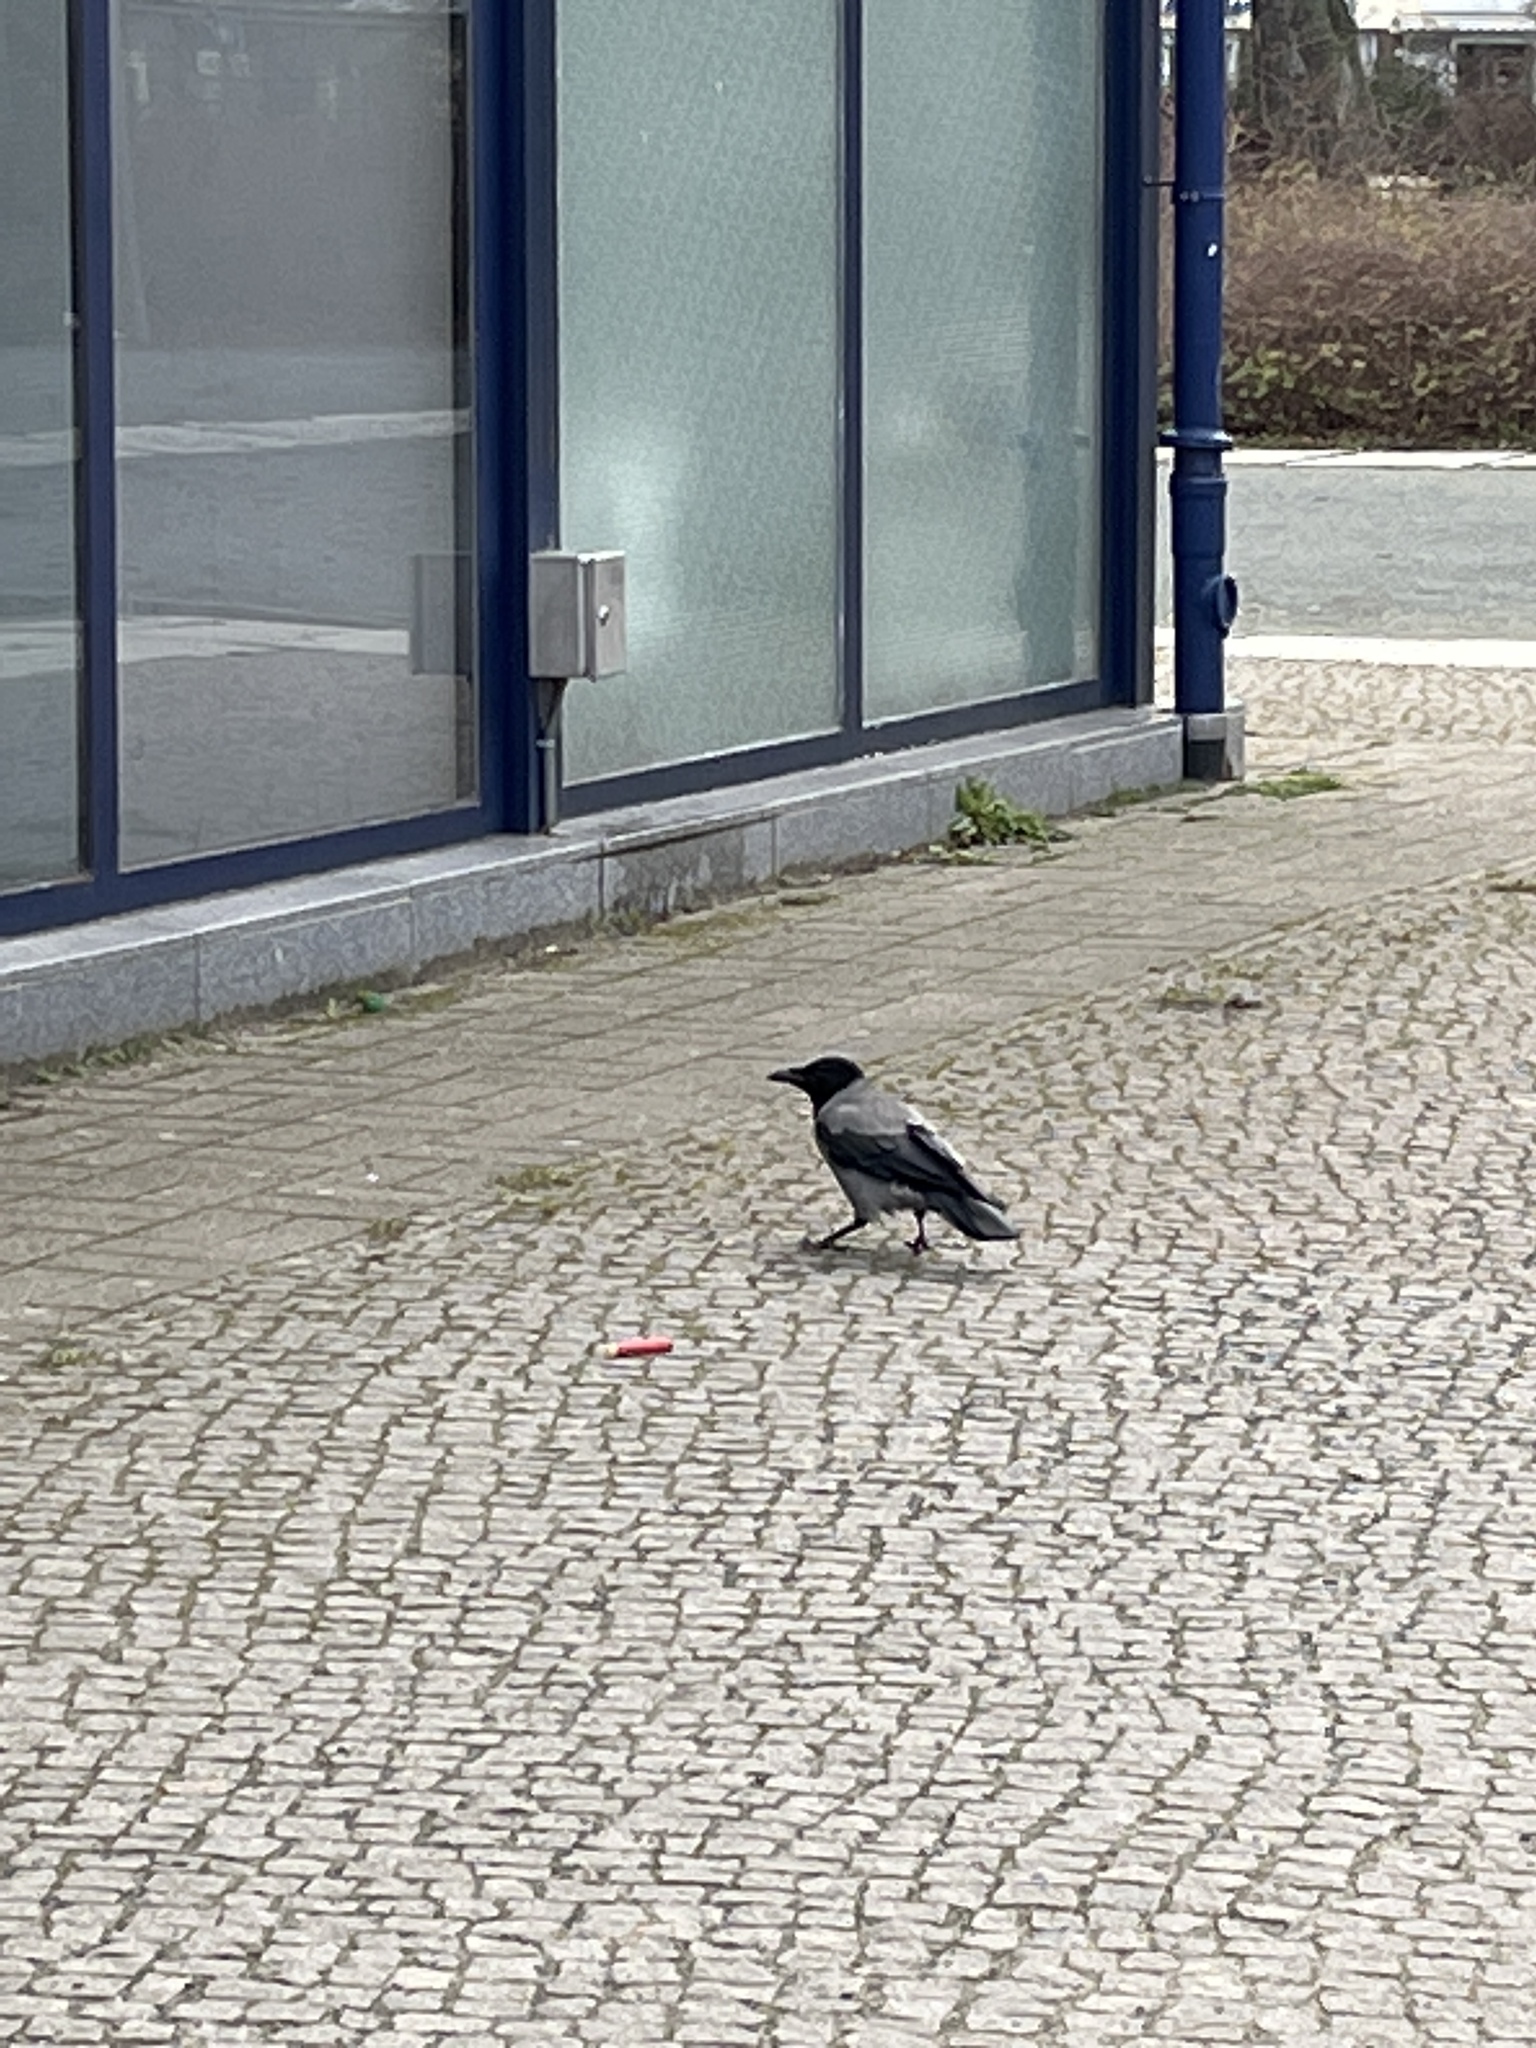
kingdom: Animalia
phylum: Chordata
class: Aves
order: Passeriformes
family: Corvidae
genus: Corvus
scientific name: Corvus cornix
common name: Hooded crow
